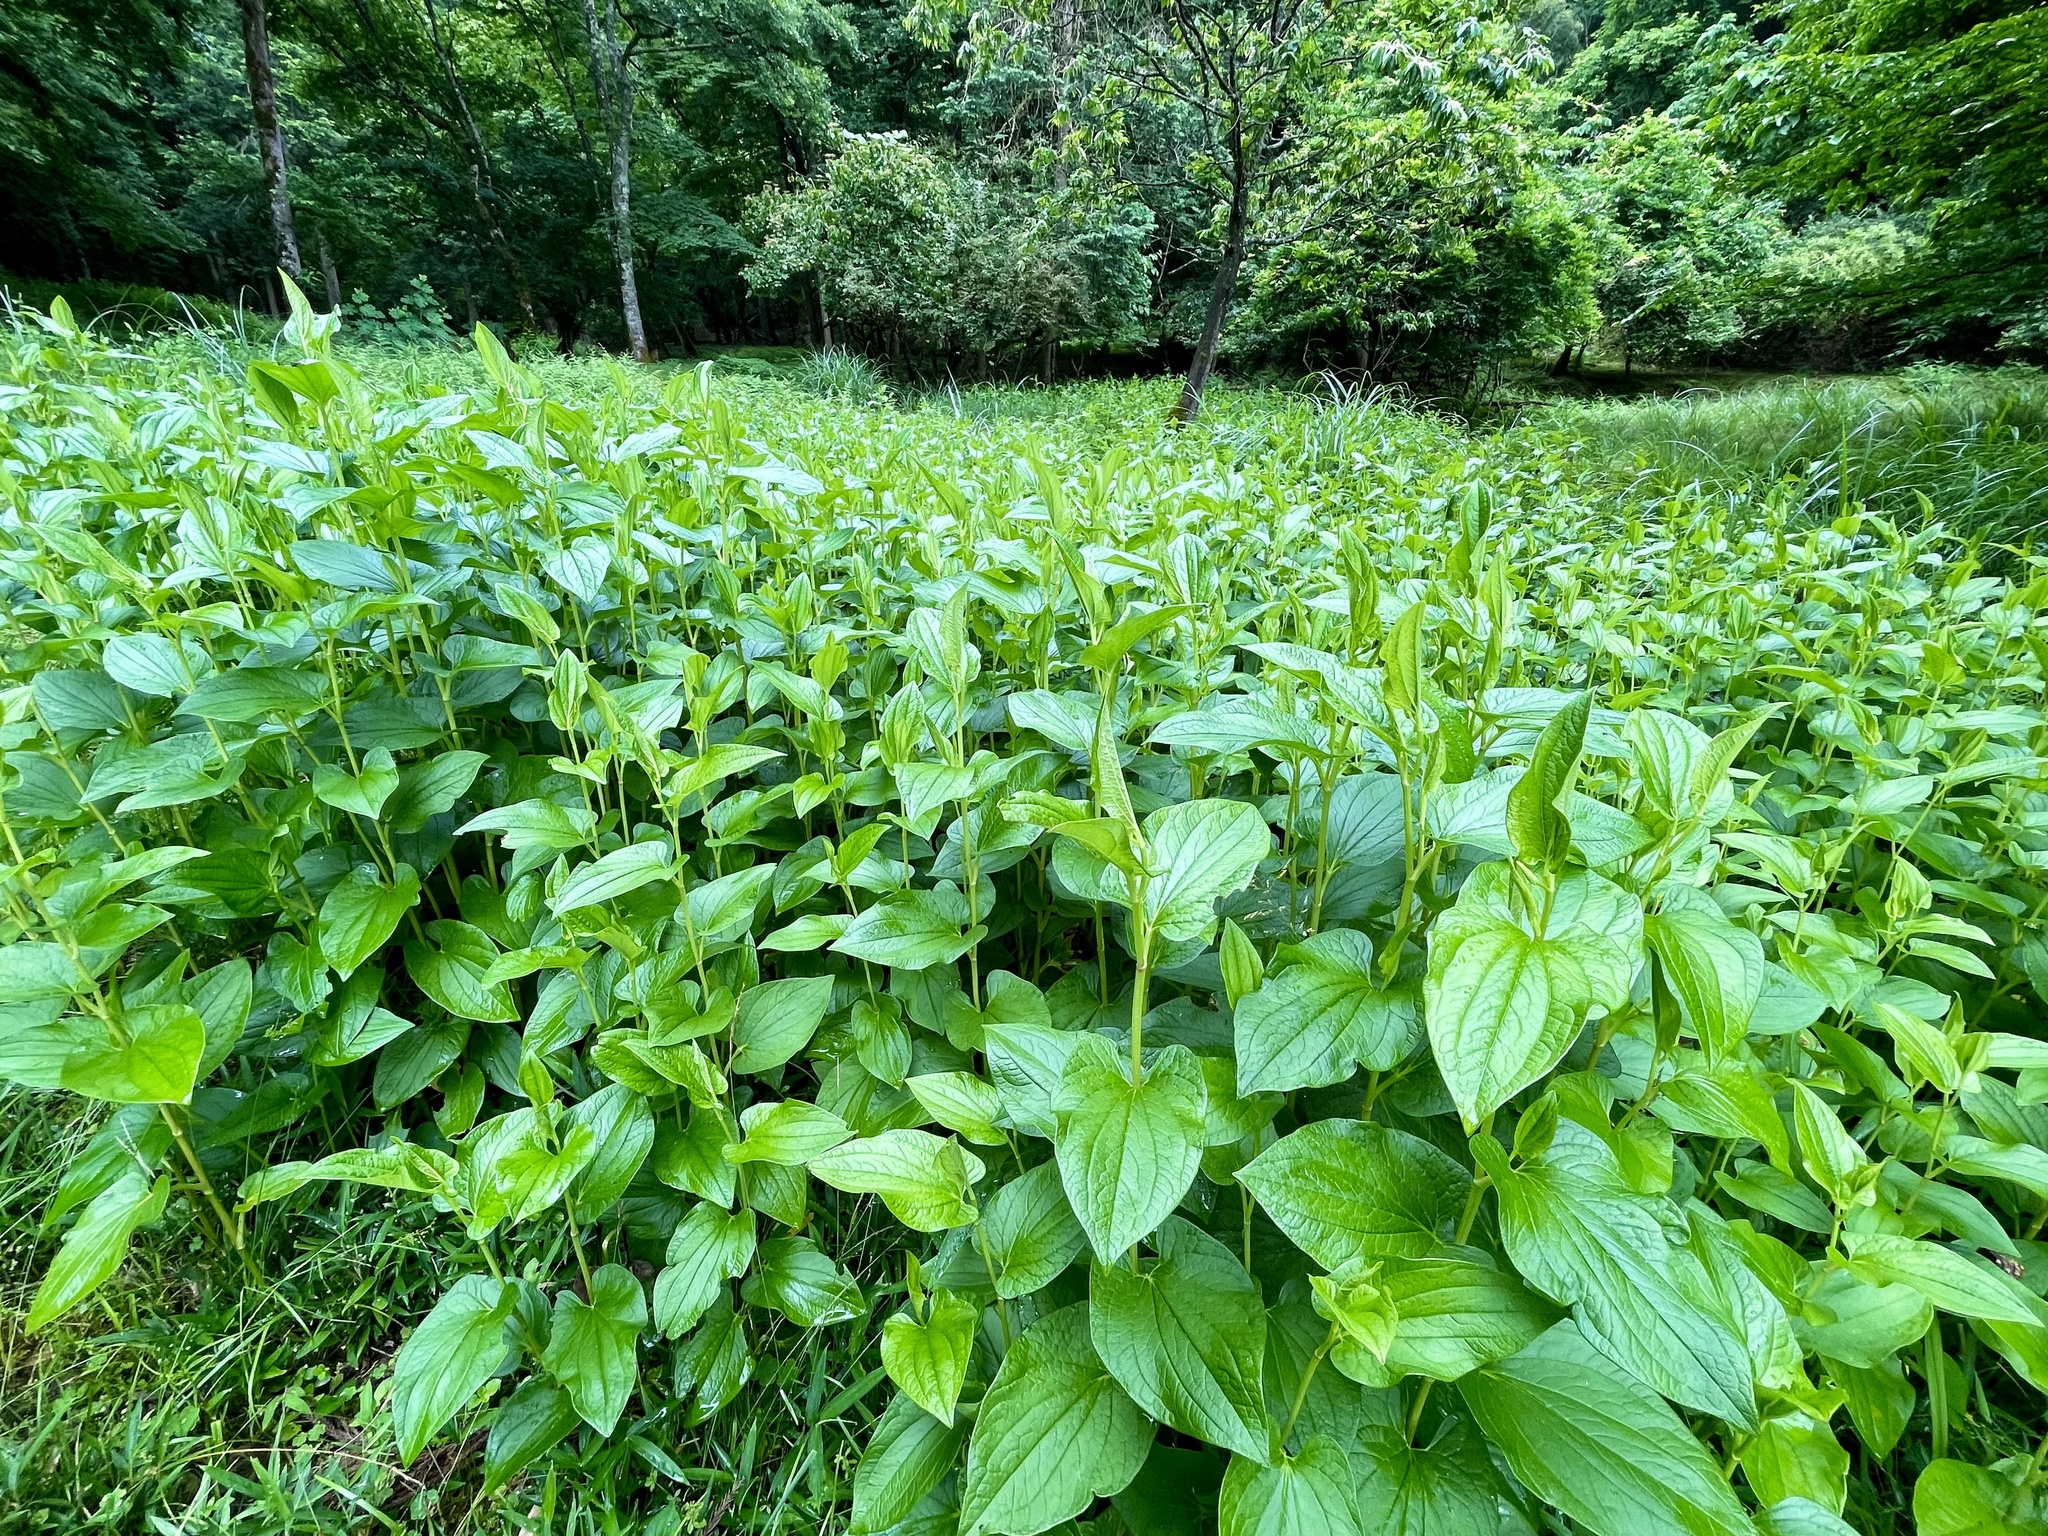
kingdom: Plantae
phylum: Tracheophyta
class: Magnoliopsida
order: Piperales
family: Saururaceae
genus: Saururus
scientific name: Saururus chinensis
